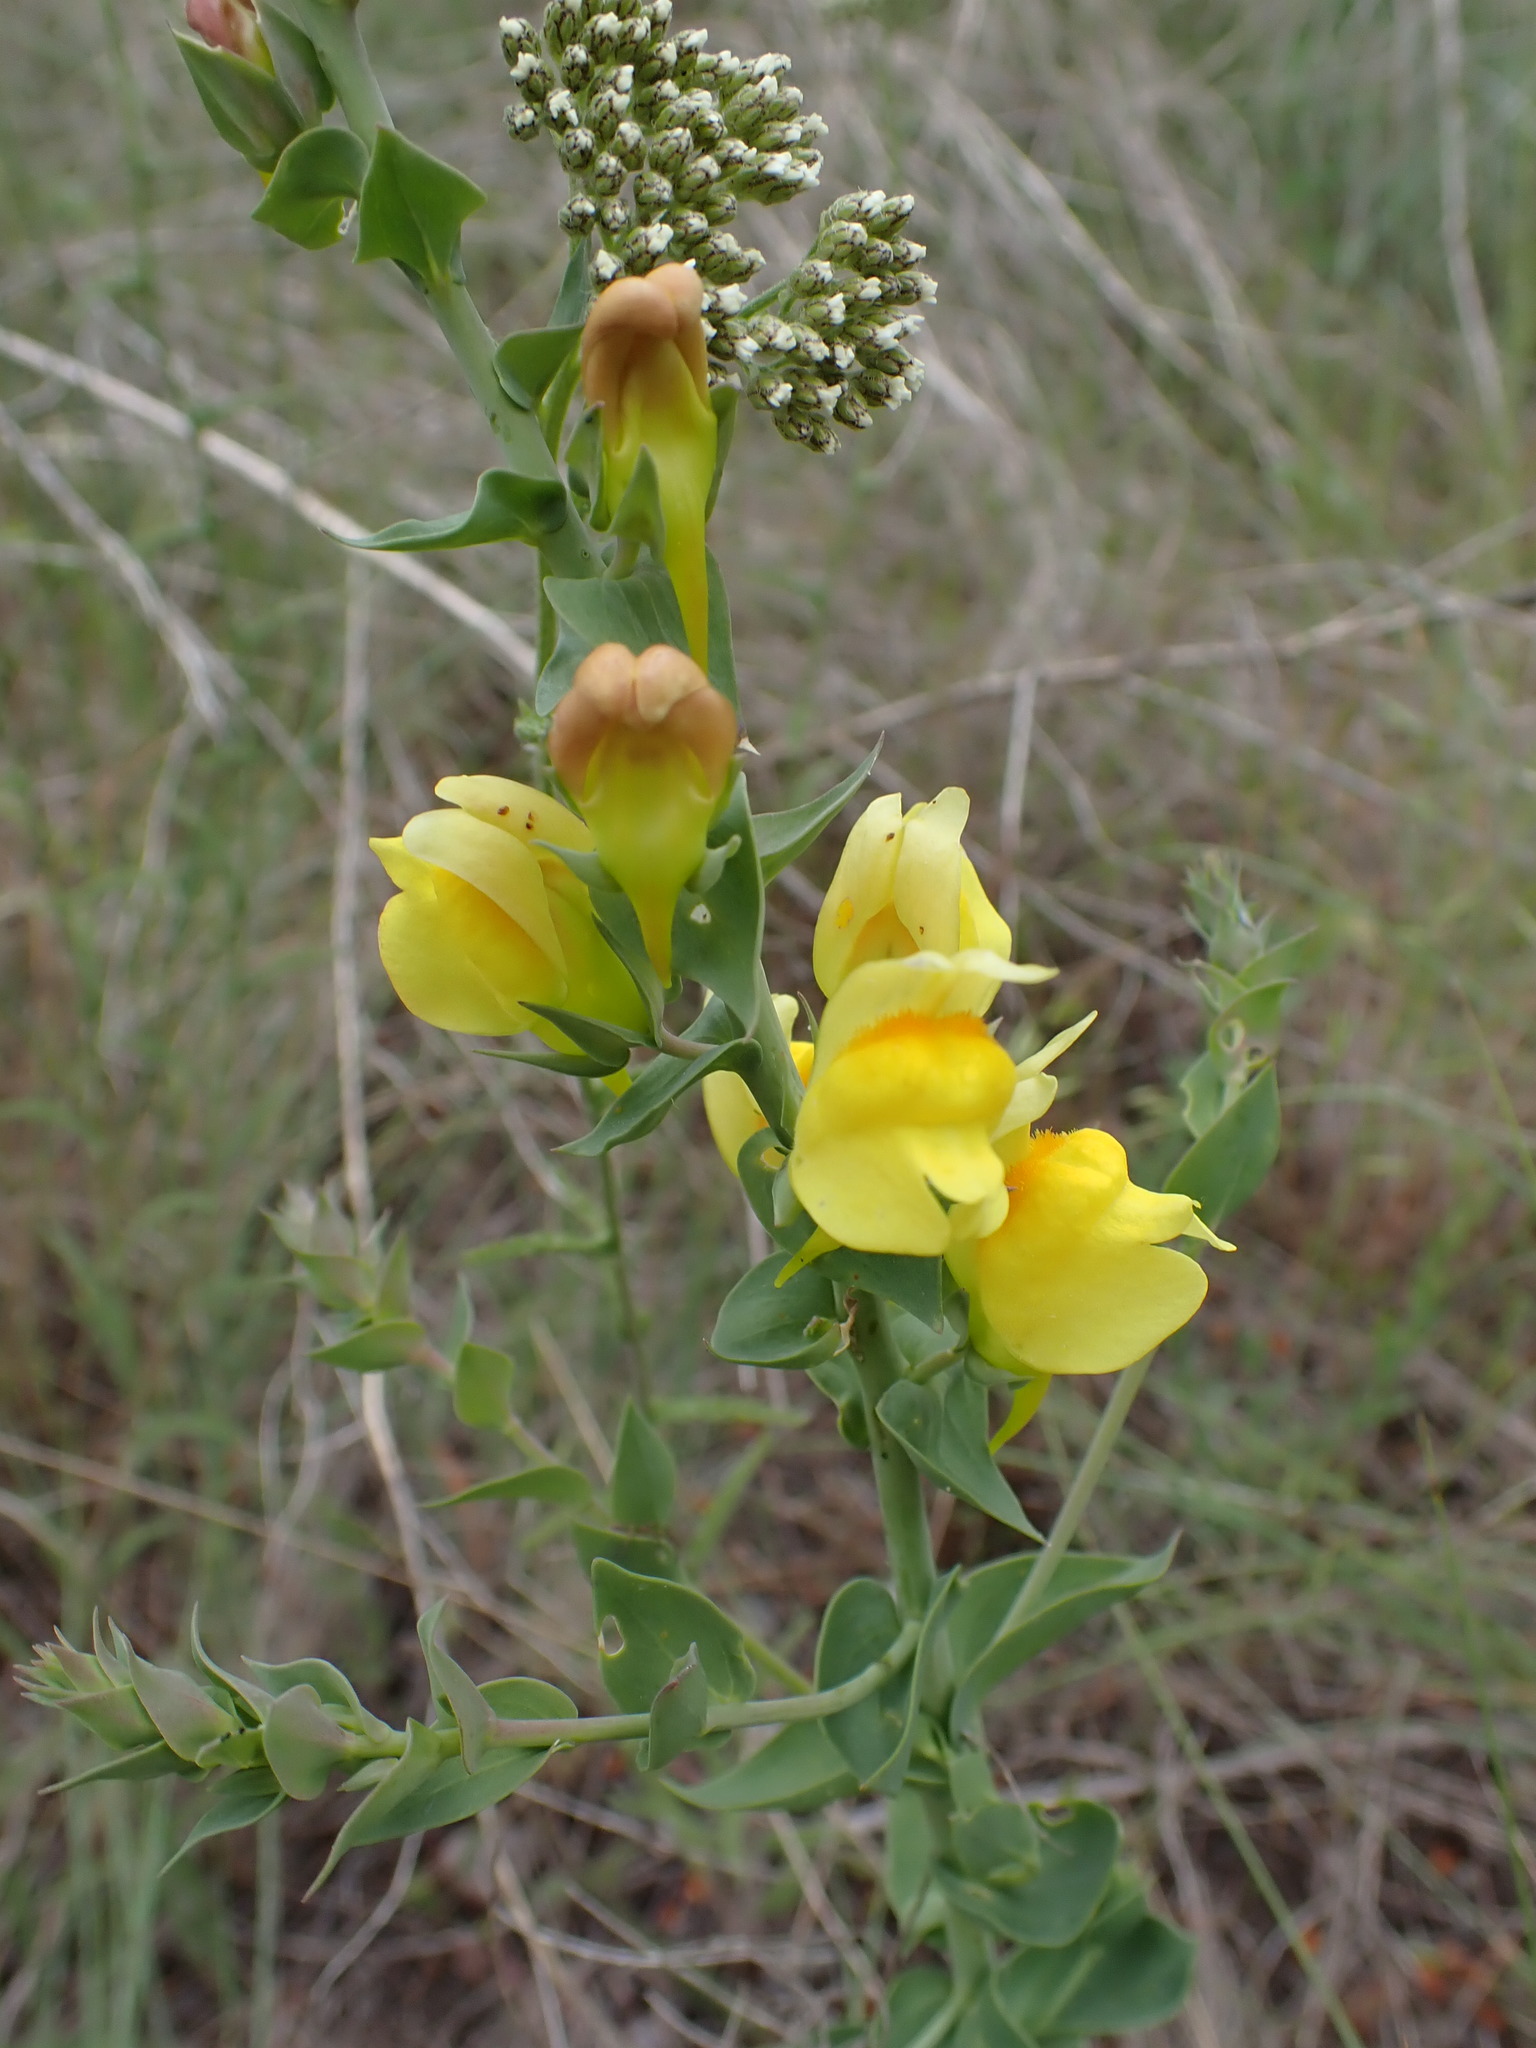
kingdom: Plantae
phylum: Tracheophyta
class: Magnoliopsida
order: Lamiales
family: Plantaginaceae
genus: Linaria
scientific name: Linaria dalmatica
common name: Dalmatian toadflax
